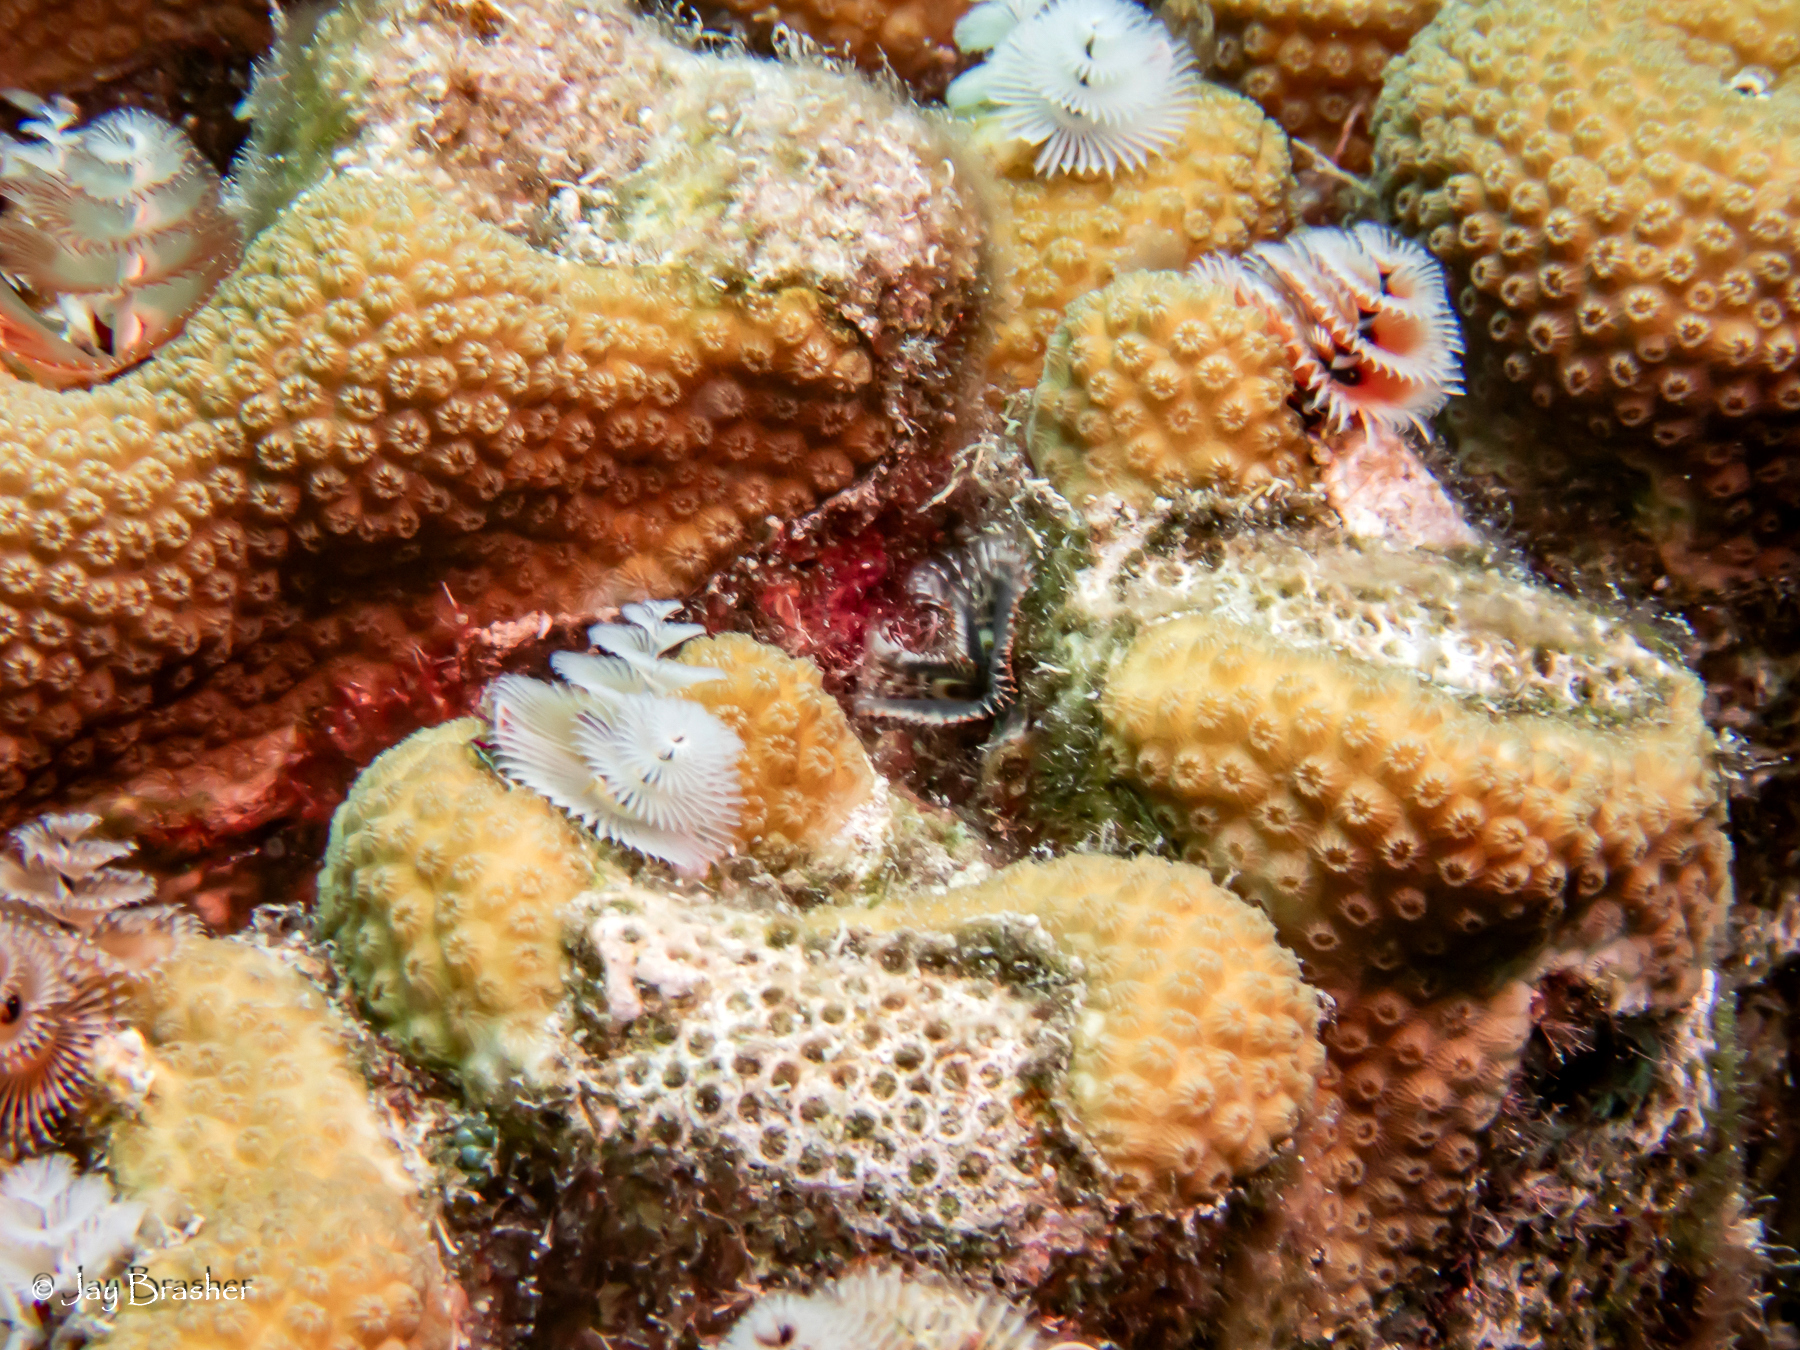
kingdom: Animalia
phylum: Annelida
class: Polychaeta
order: Sabellida
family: Serpulidae
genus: Spirobranchus
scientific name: Spirobranchus giganteus
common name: Christmas tree worm
